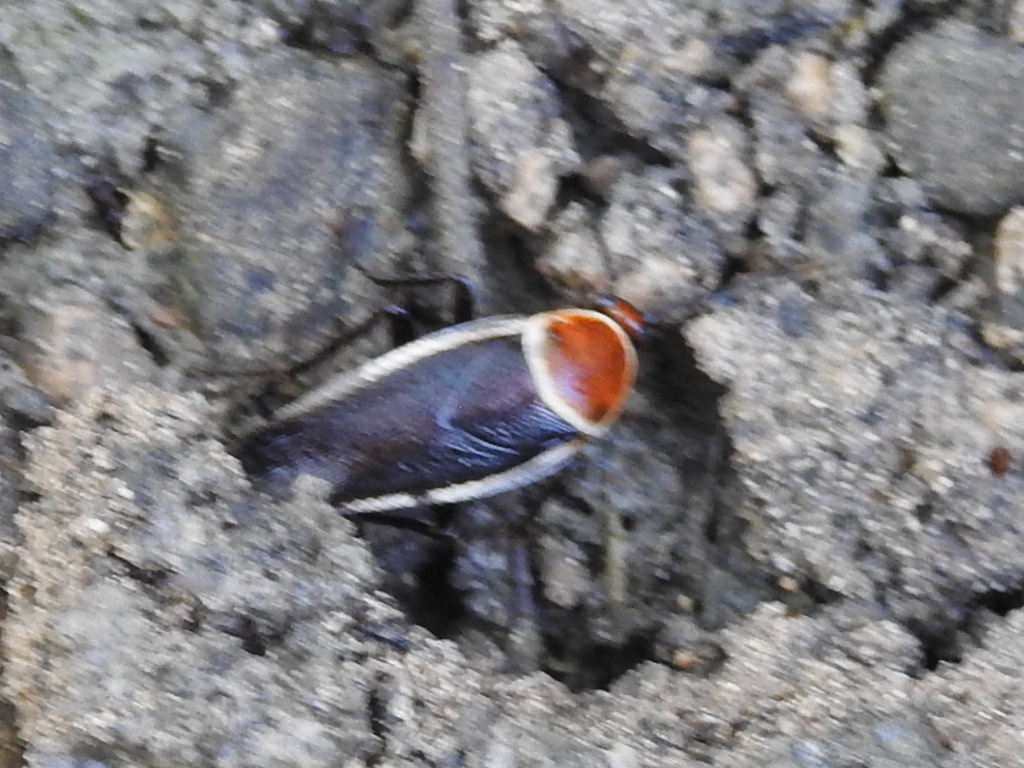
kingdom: Animalia
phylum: Arthropoda
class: Insecta
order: Blattodea
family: Ectobiidae
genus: Pseudomops
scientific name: Pseudomops septentrionalis
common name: Pale-bordered field cockroach
